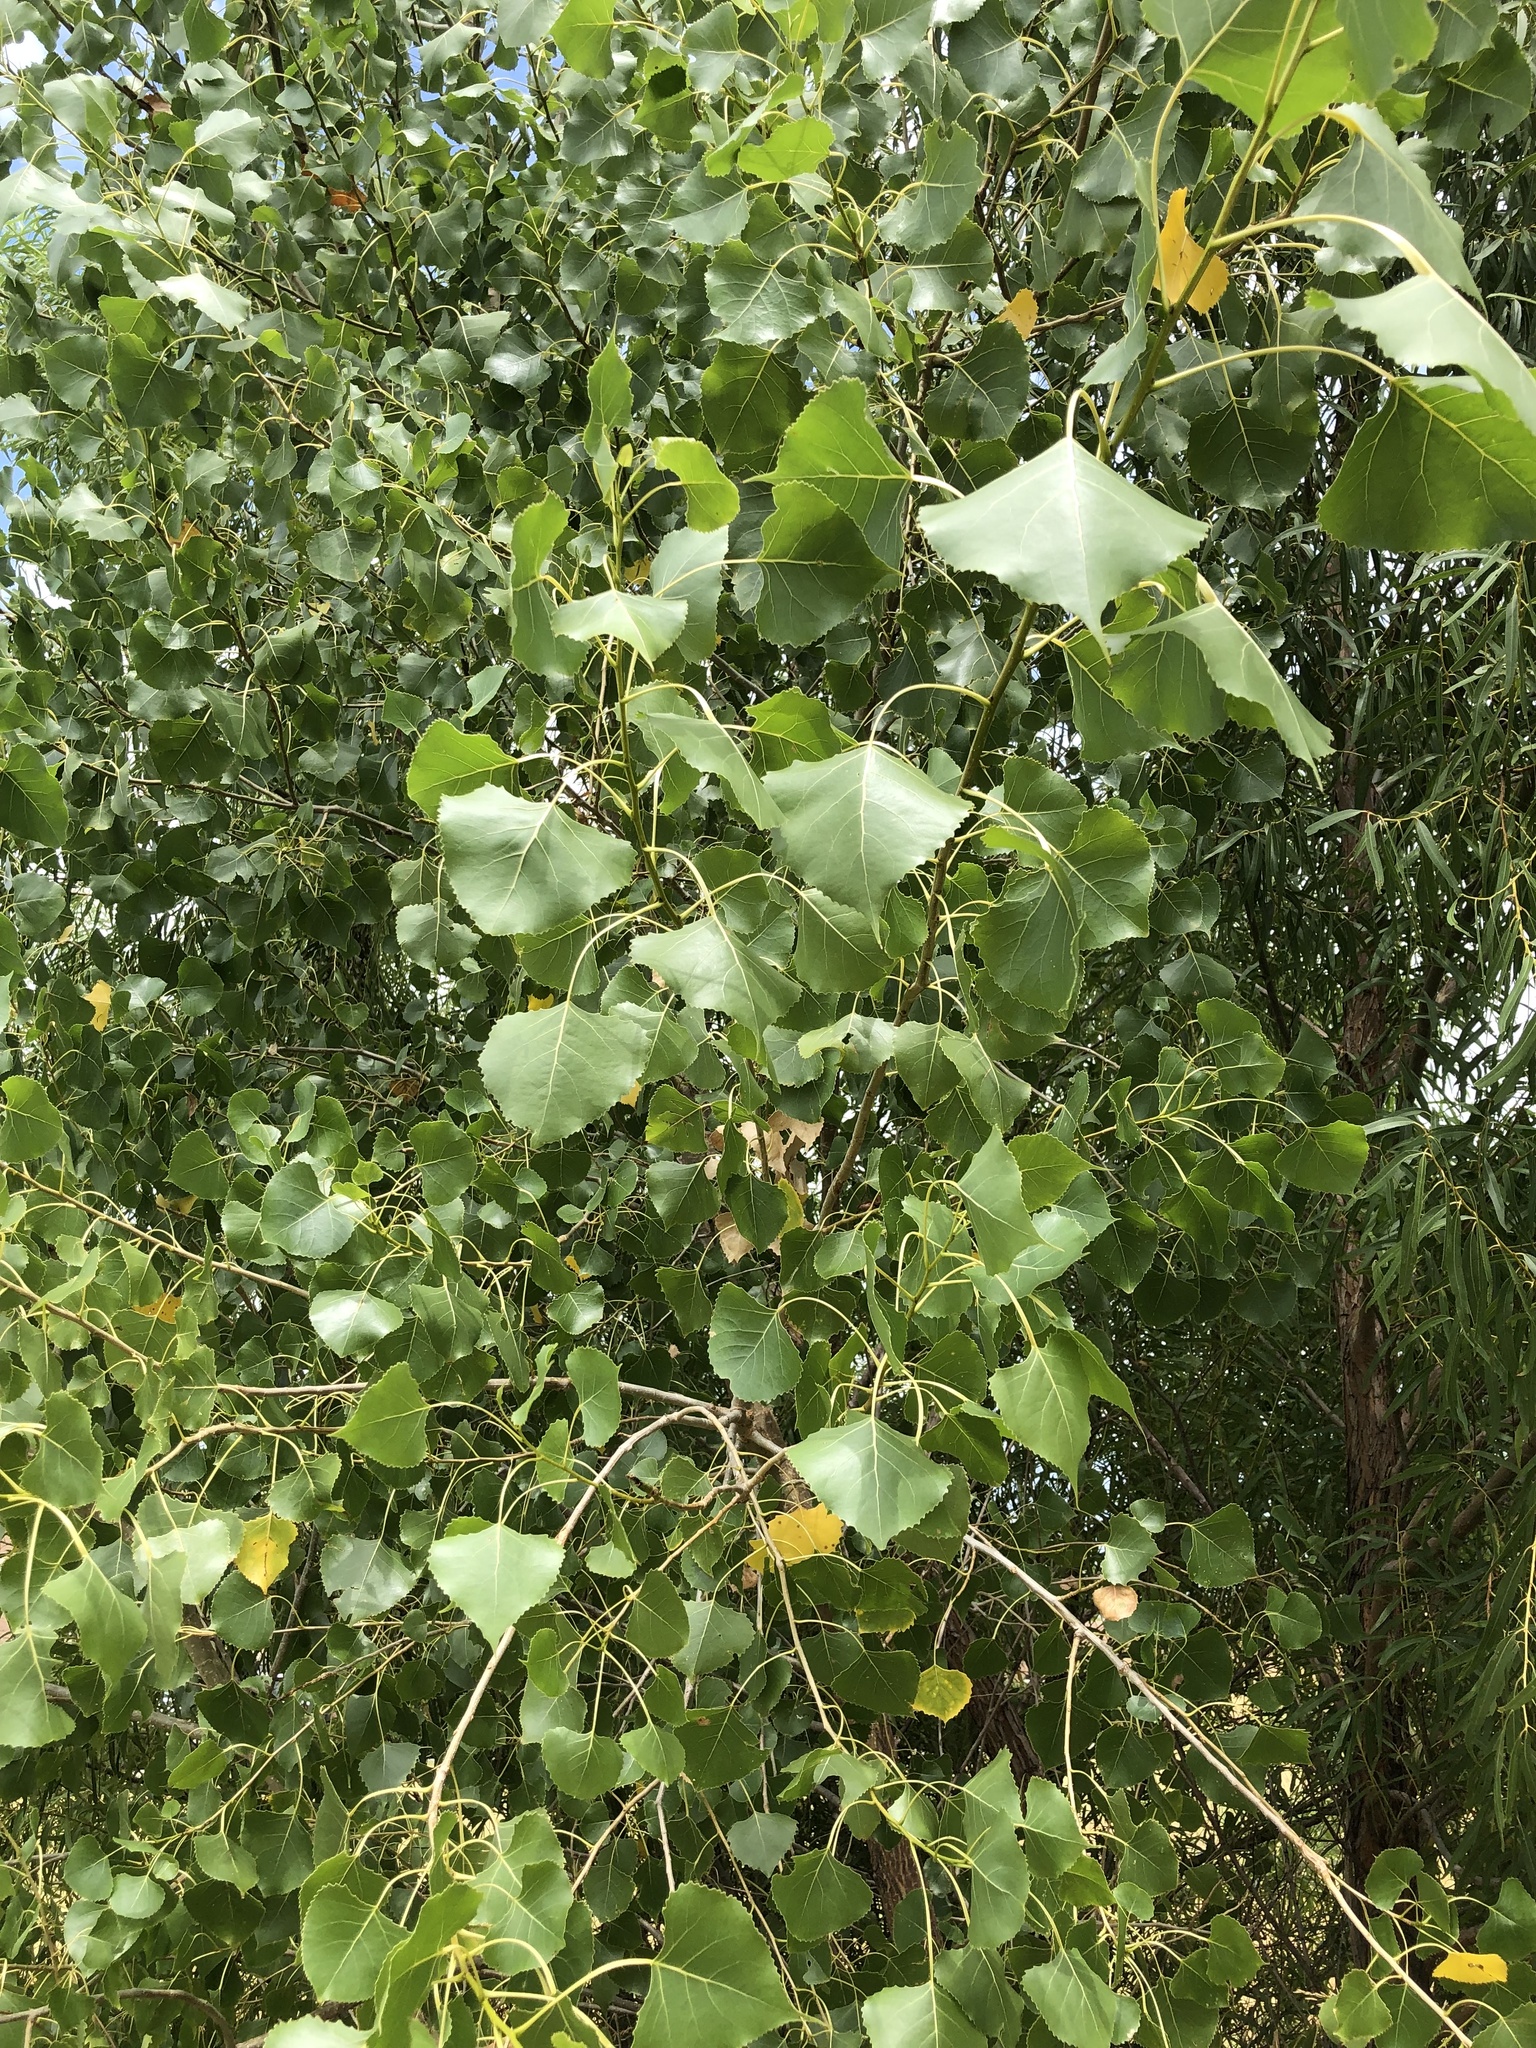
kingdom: Plantae
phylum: Tracheophyta
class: Magnoliopsida
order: Malpighiales
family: Salicaceae
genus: Populus
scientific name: Populus deltoides
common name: Eastern cottonwood
